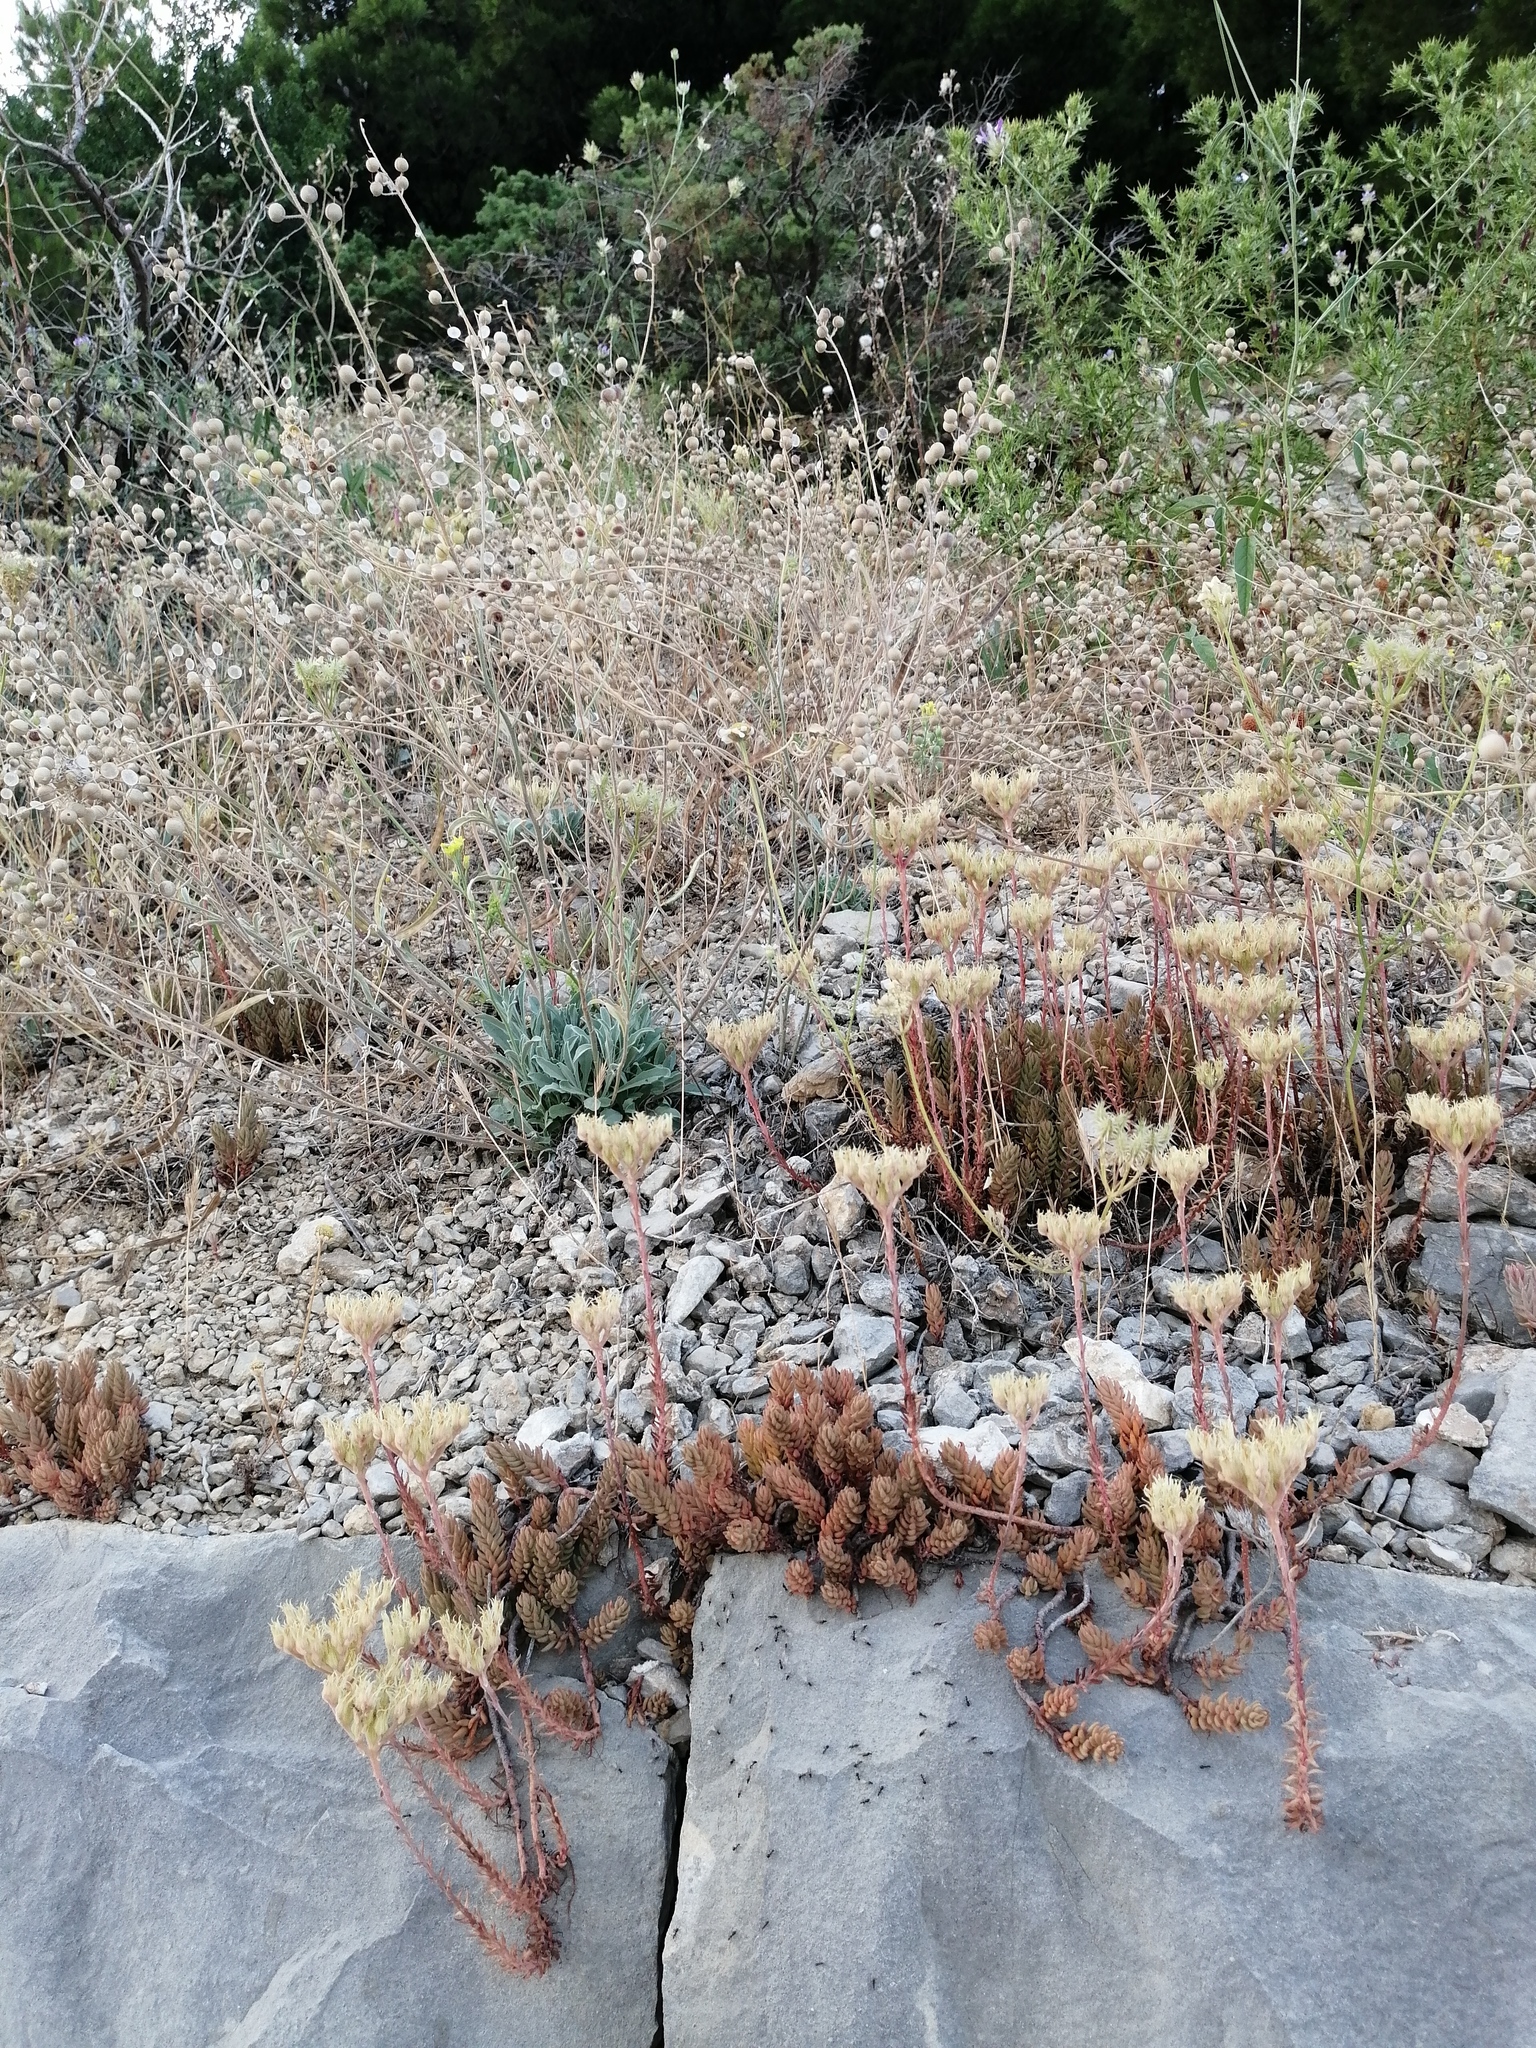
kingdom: Plantae
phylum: Tracheophyta
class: Magnoliopsida
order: Saxifragales
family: Crassulaceae
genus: Petrosedum
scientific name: Petrosedum ochroleucum
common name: European stonecrop
